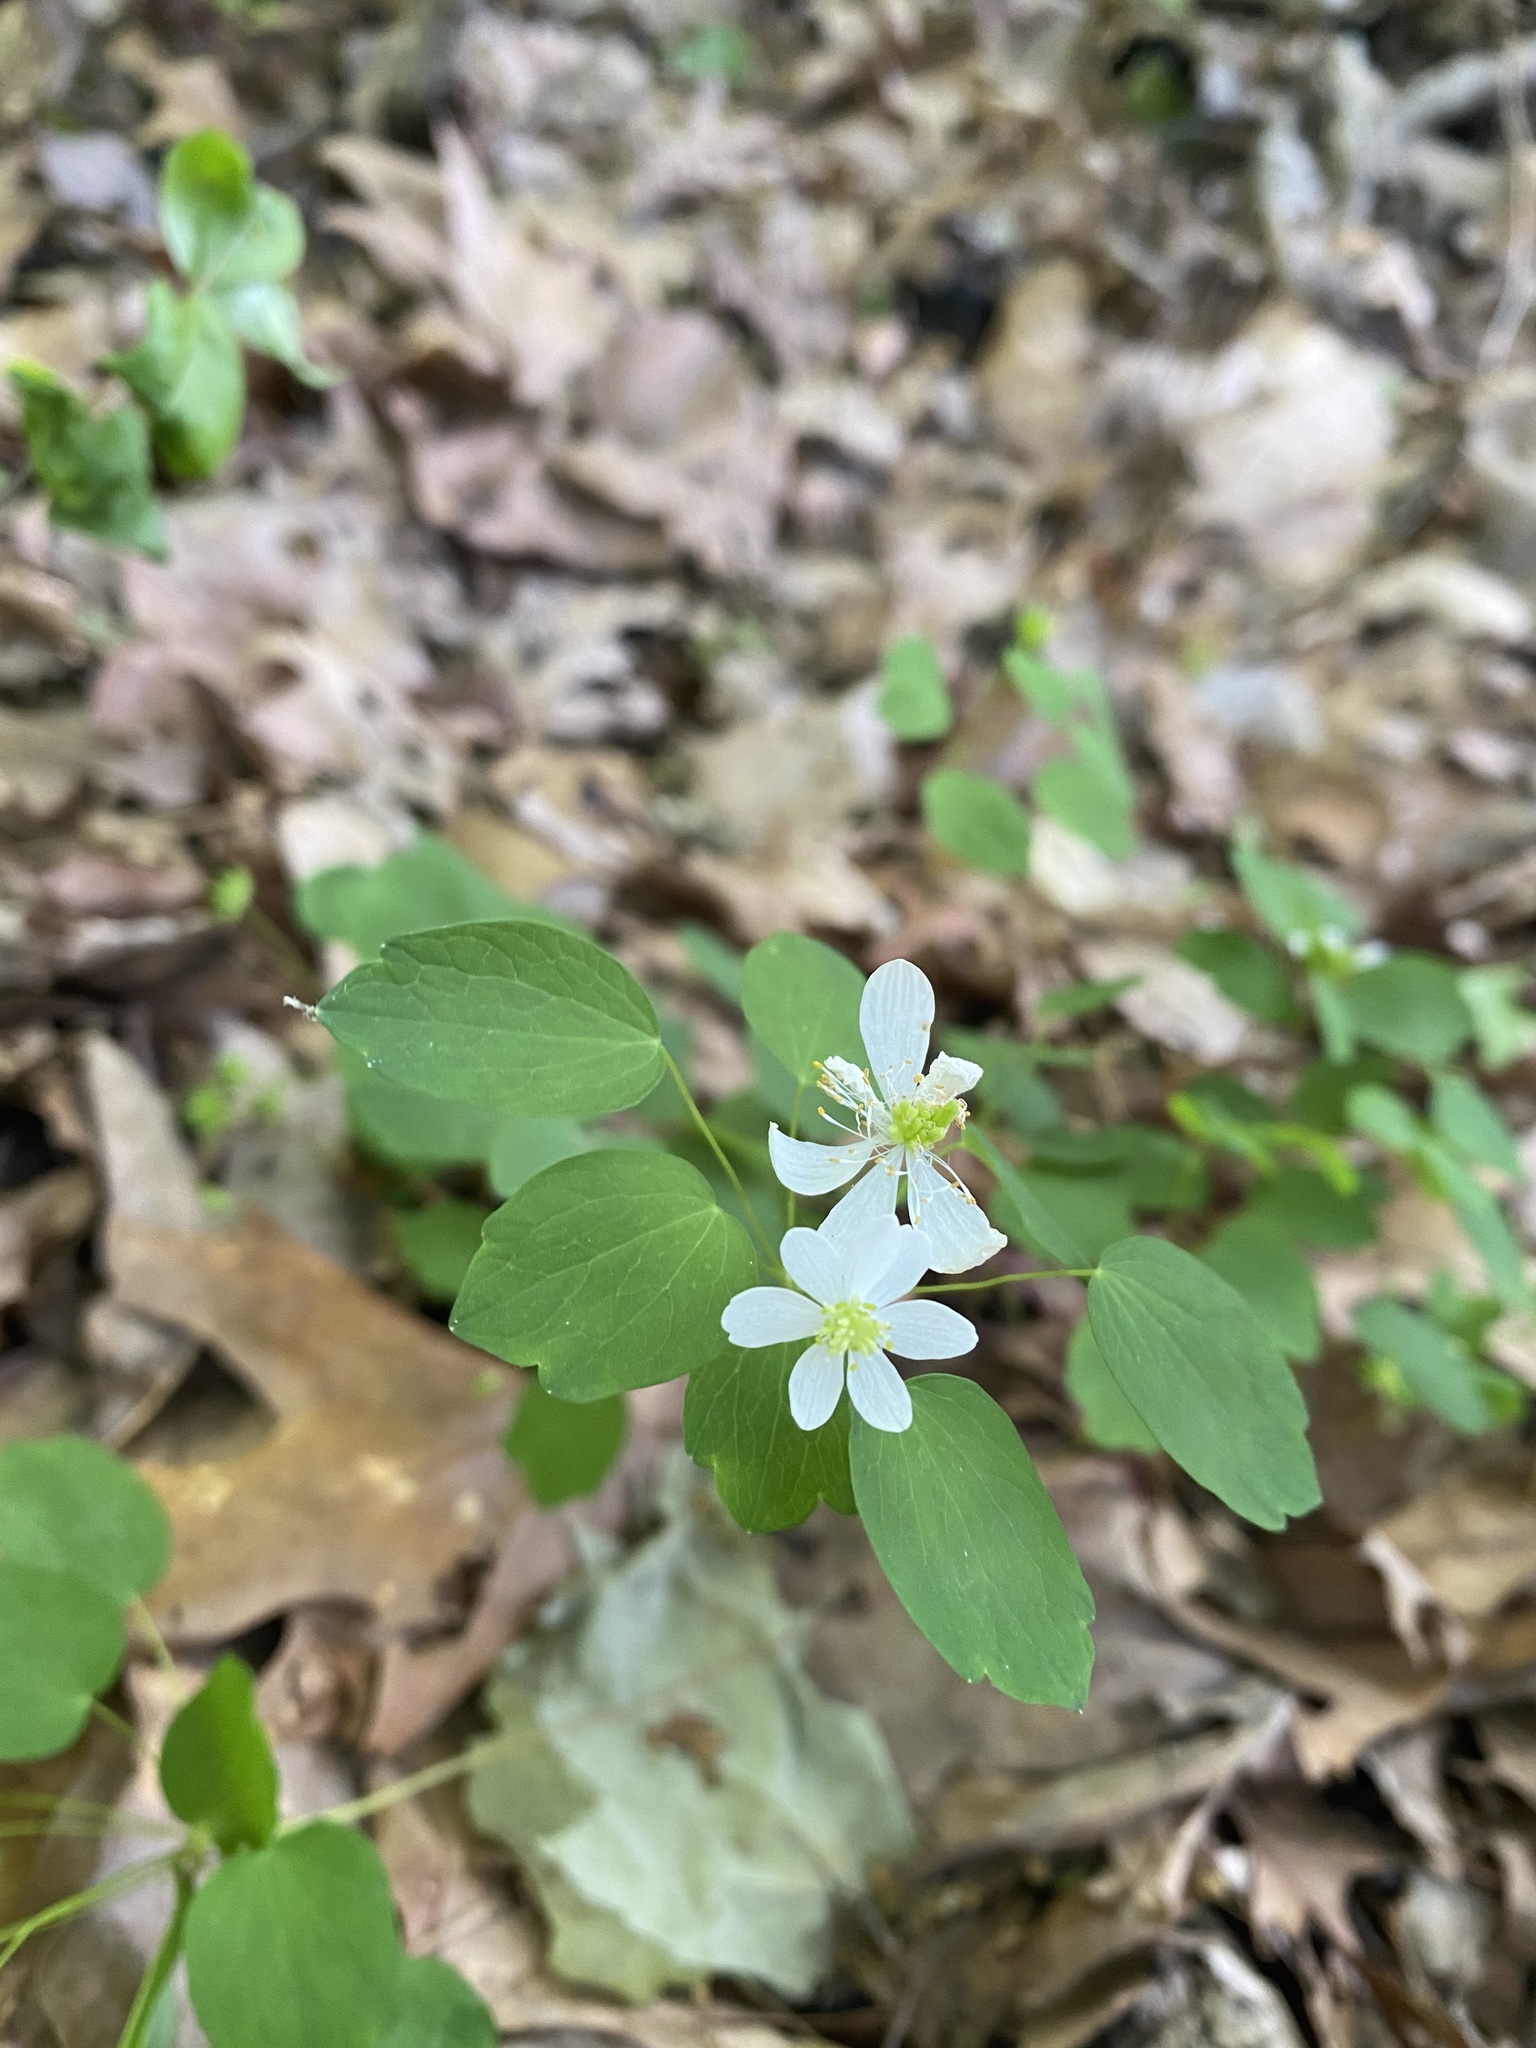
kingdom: Plantae
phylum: Tracheophyta
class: Magnoliopsida
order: Ranunculales
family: Ranunculaceae
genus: Thalictrum
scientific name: Thalictrum thalictroides
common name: Rue-anemone
